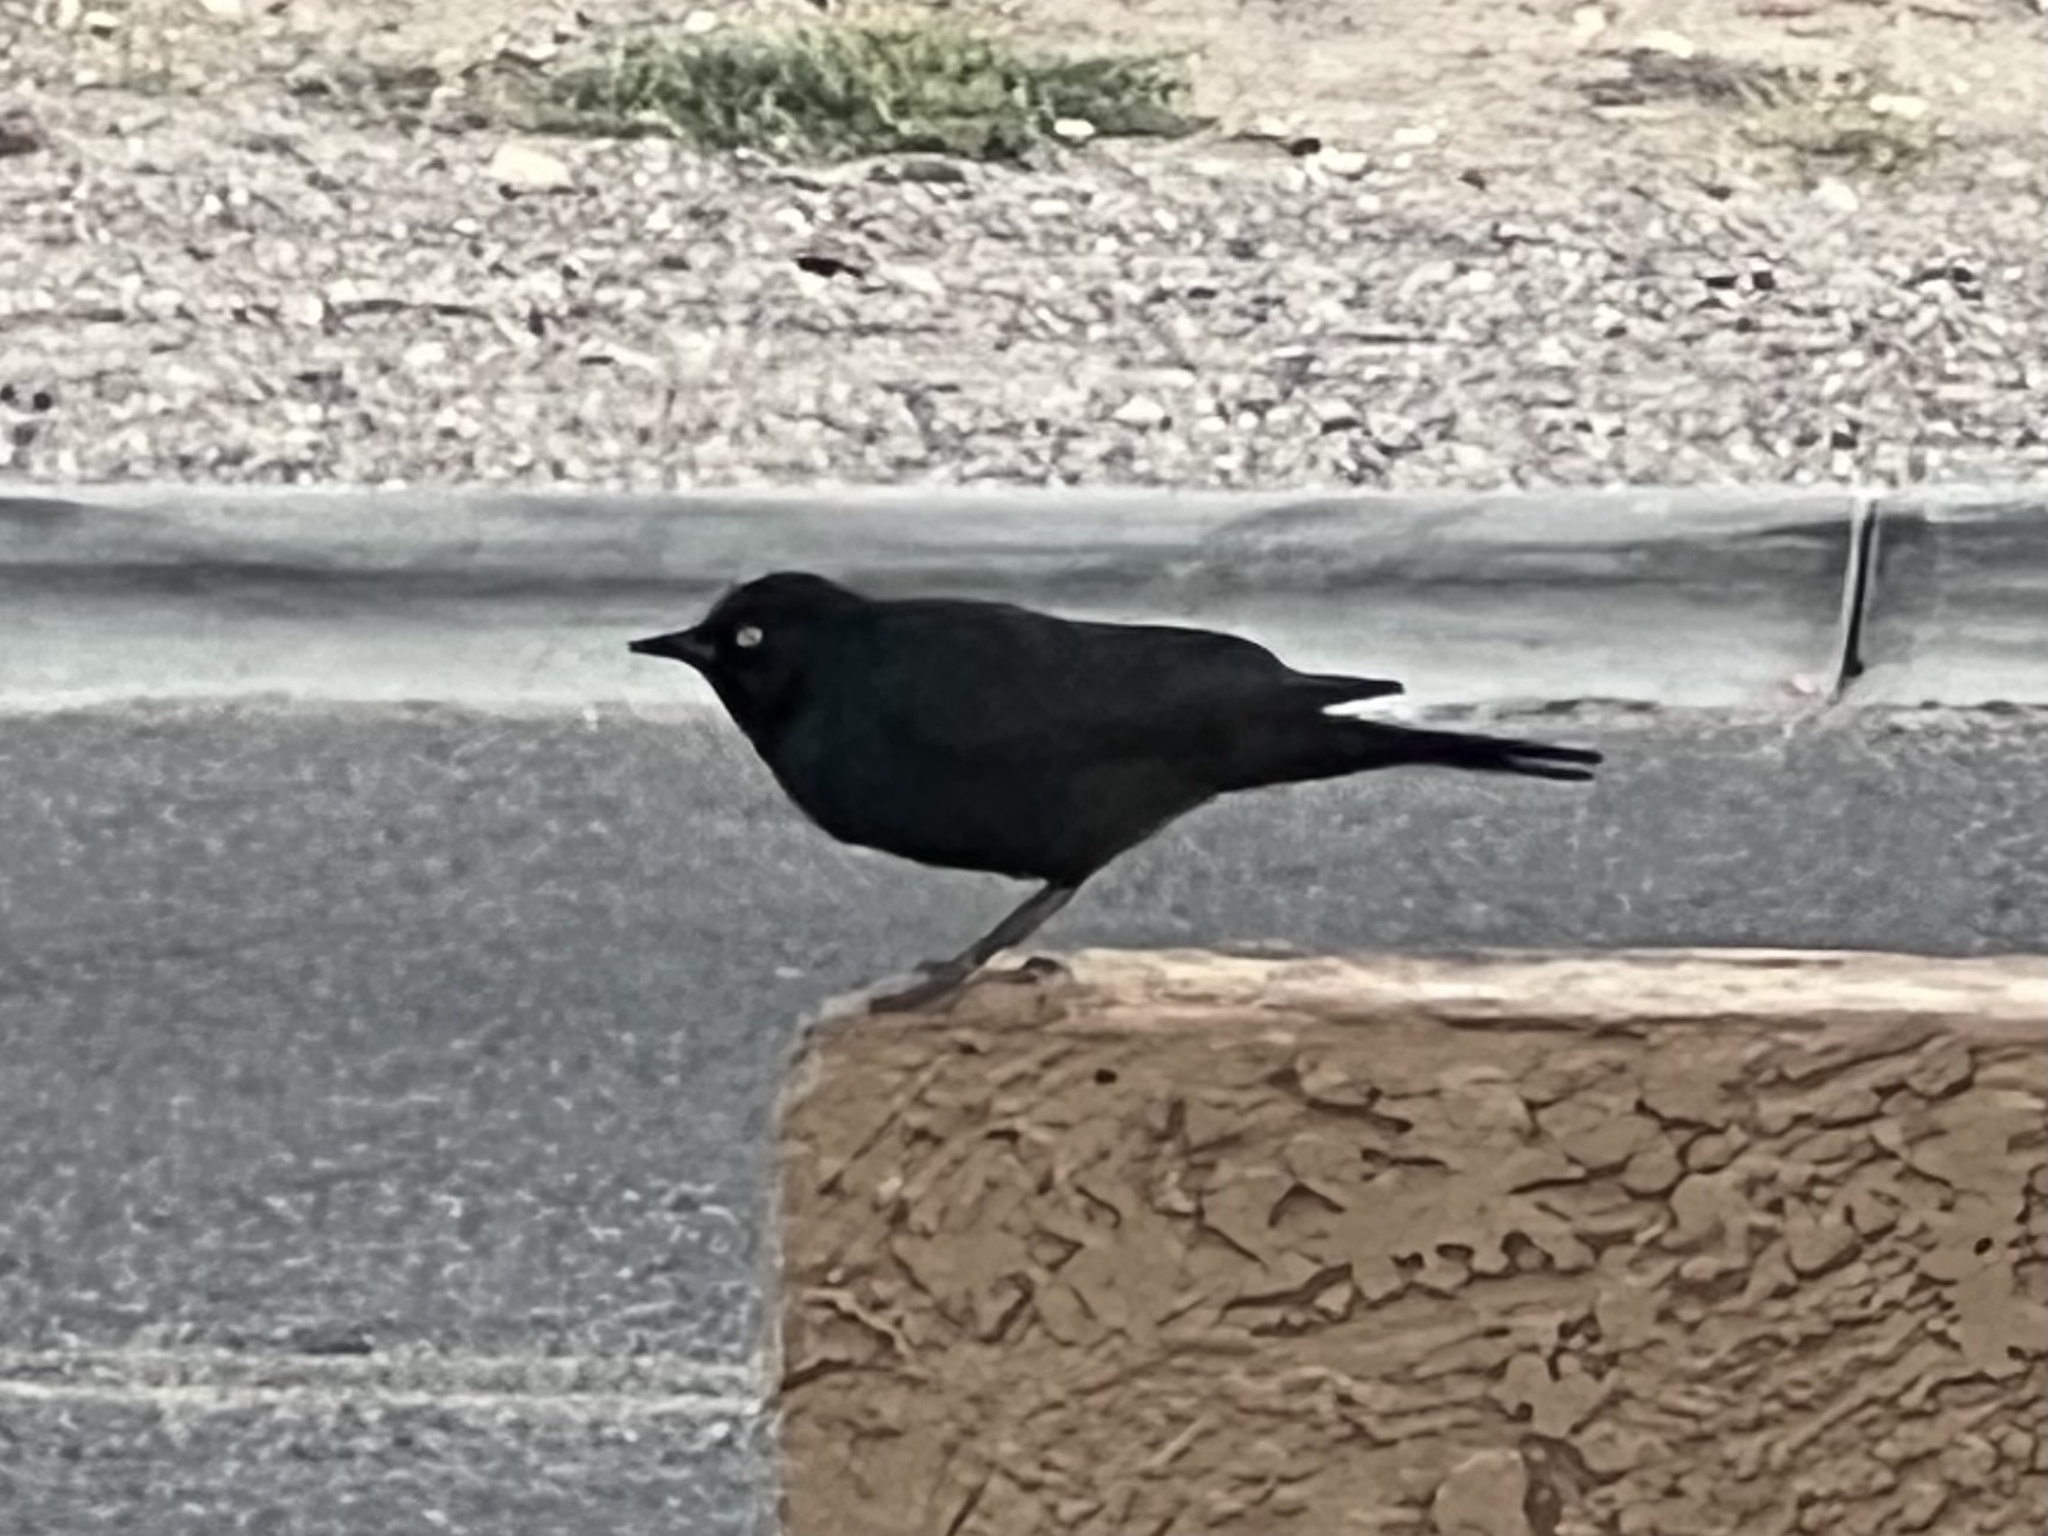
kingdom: Animalia
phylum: Chordata
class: Aves
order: Passeriformes
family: Icteridae
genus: Euphagus
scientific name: Euphagus cyanocephalus
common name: Brewer's blackbird
